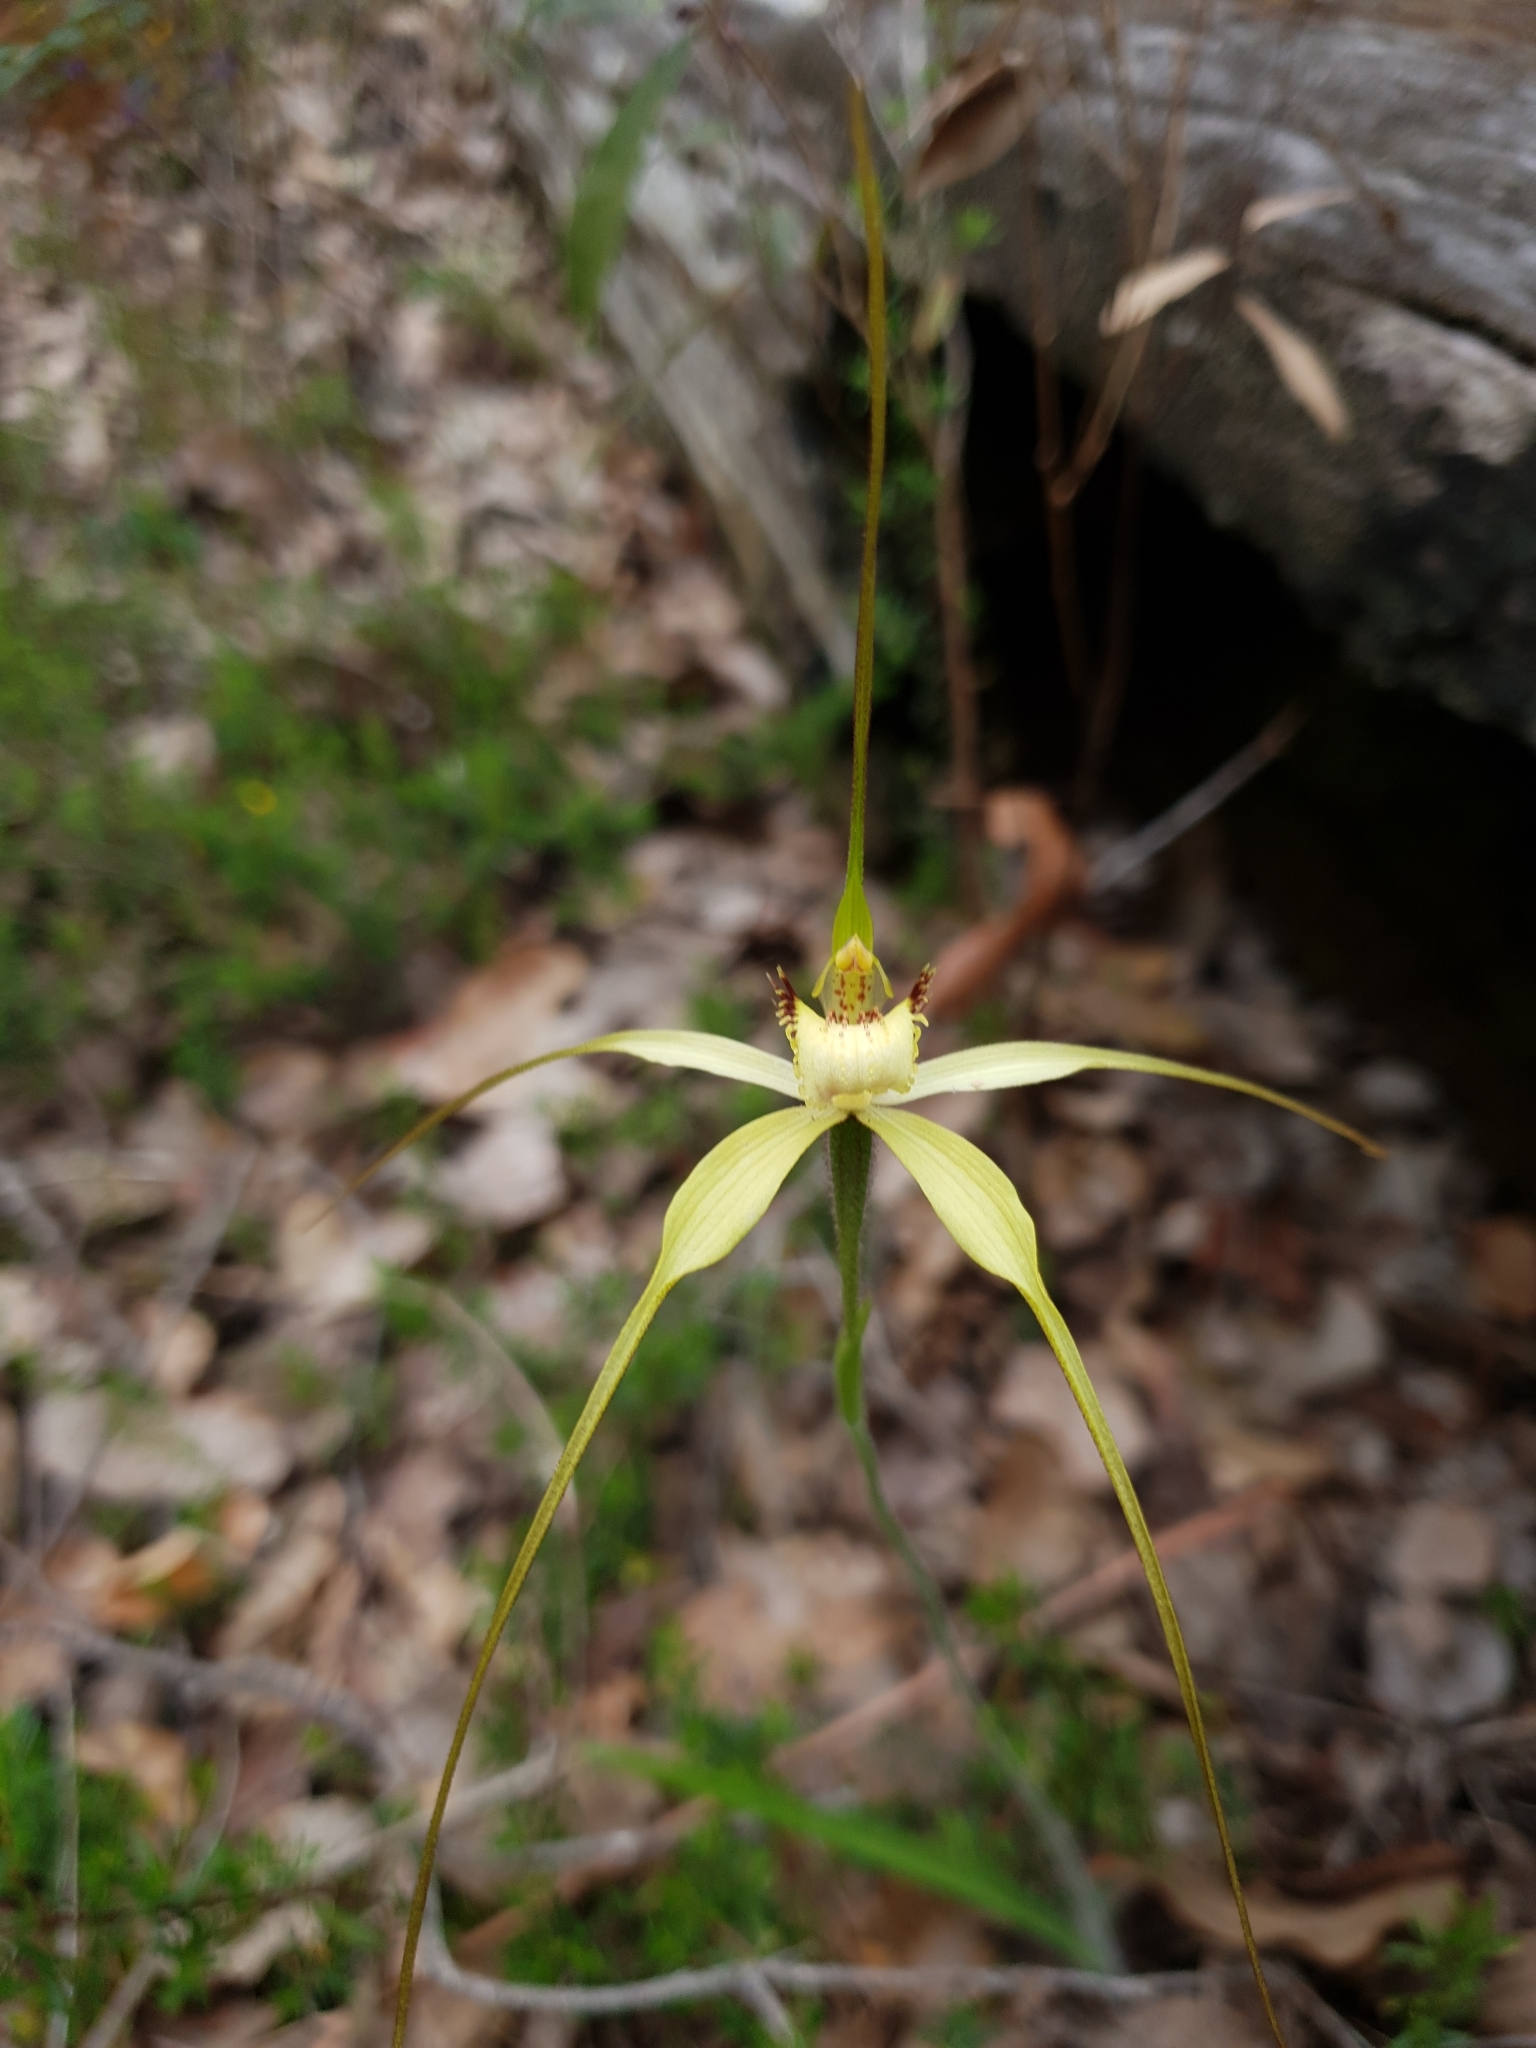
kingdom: Plantae
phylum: Tracheophyta
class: Liliopsida
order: Asparagales
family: Orchidaceae
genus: Caladenia
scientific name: Caladenia citrina
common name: Margaret river spider orchid
